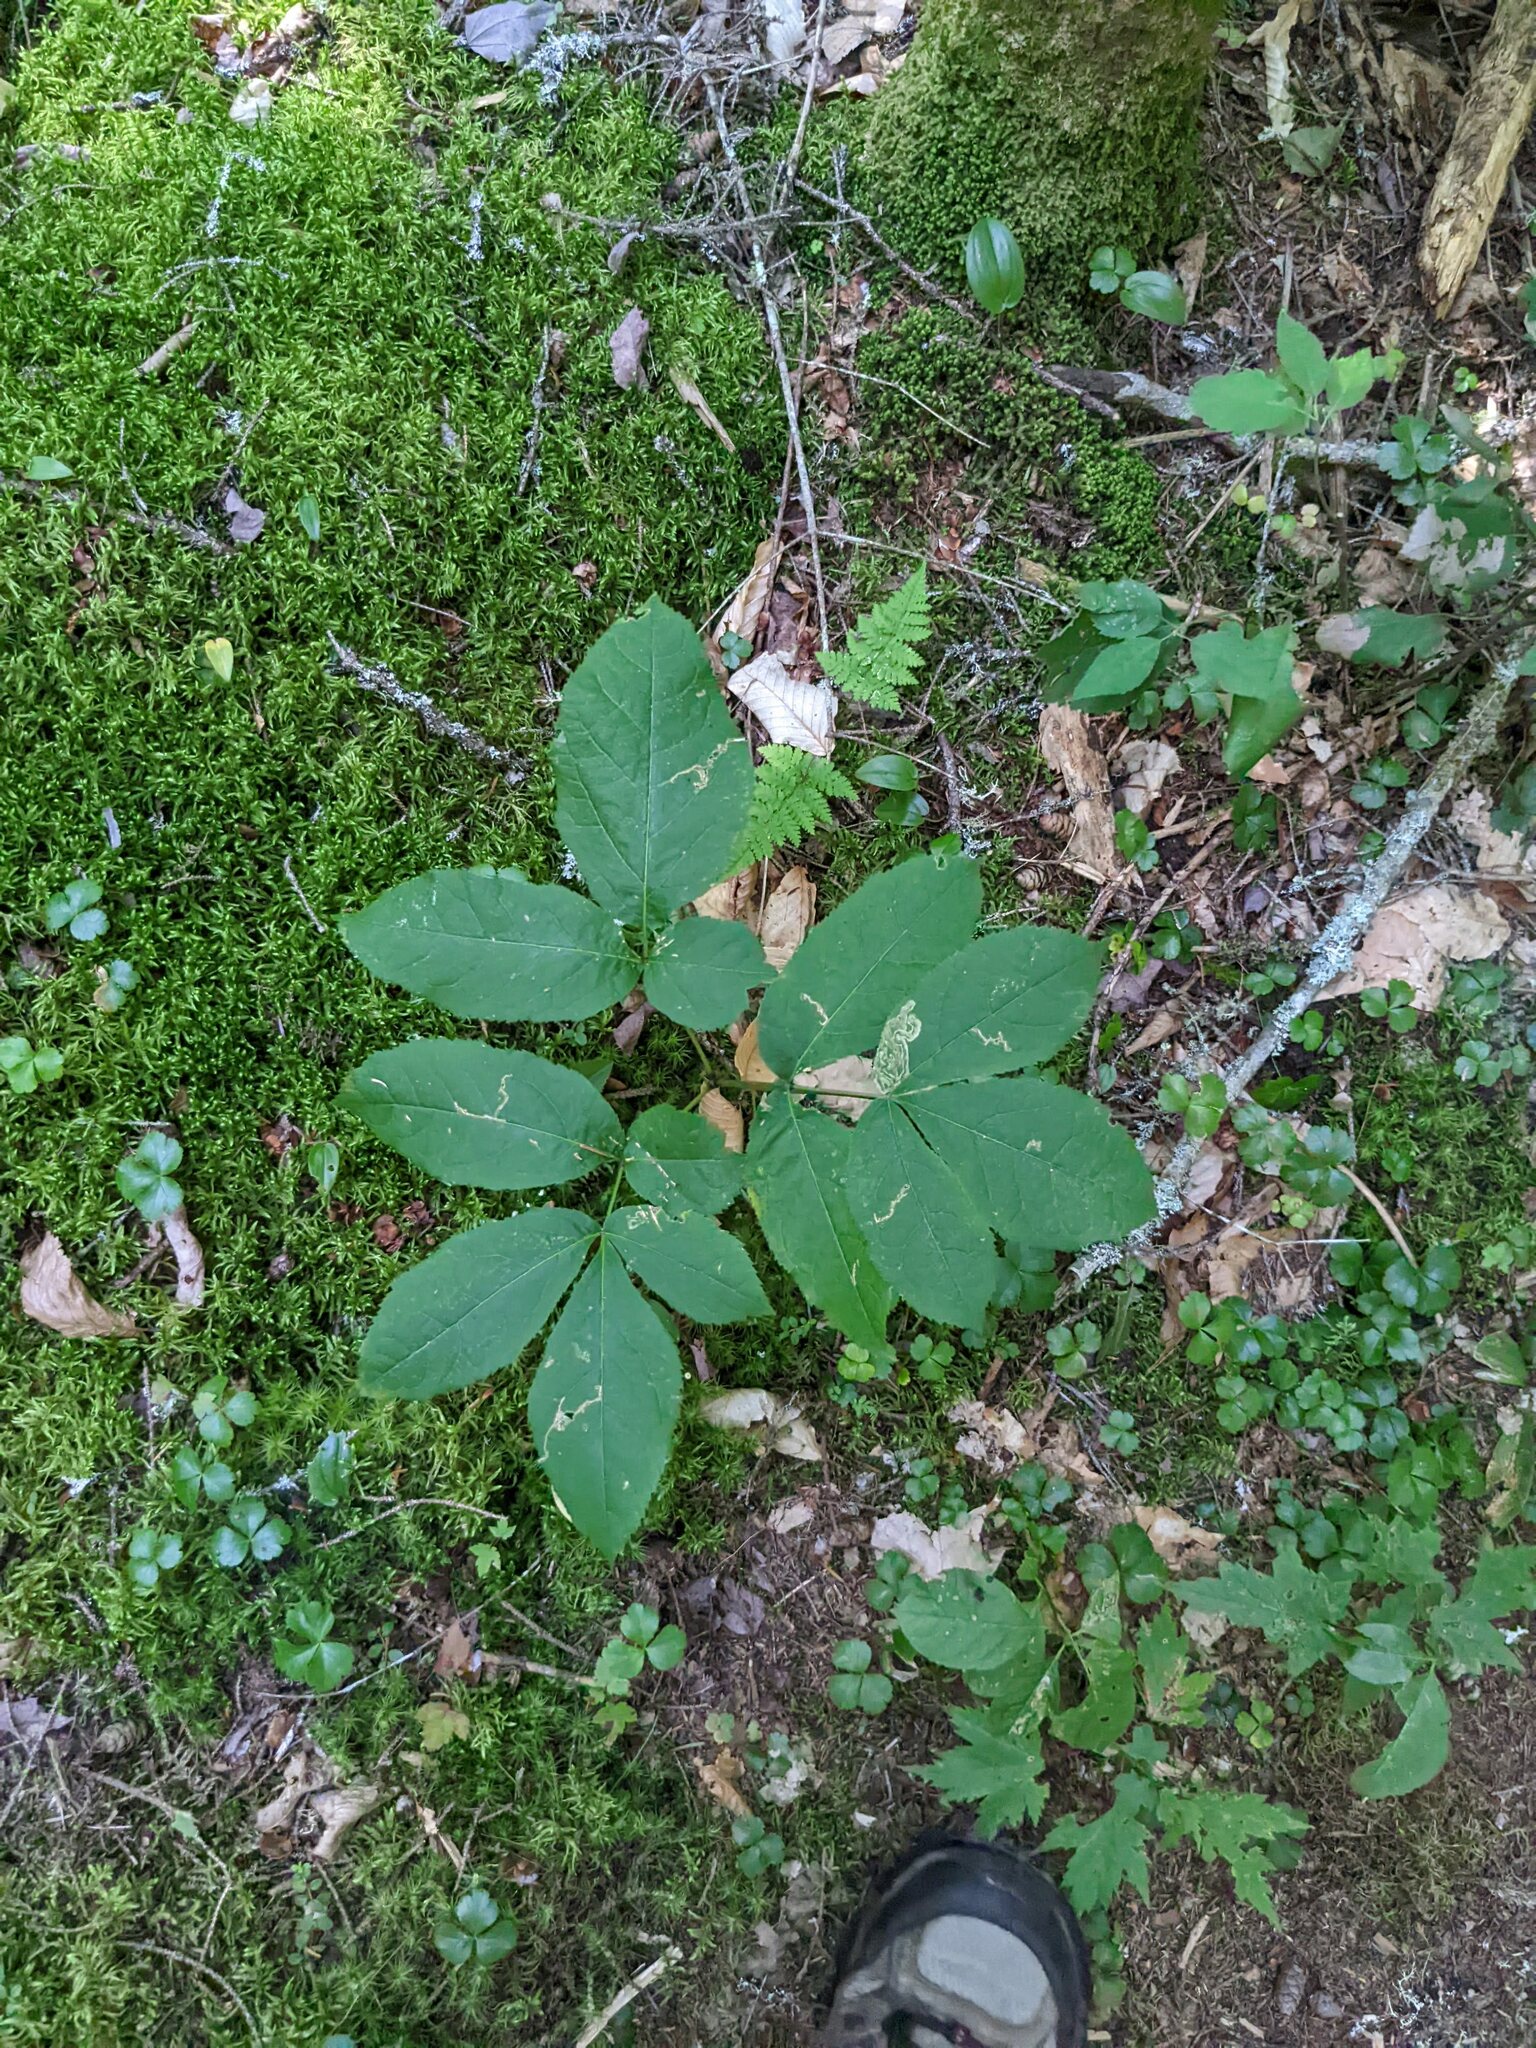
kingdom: Plantae
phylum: Tracheophyta
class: Magnoliopsida
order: Apiales
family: Araliaceae
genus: Aralia
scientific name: Aralia nudicaulis
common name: Wild sarsaparilla
